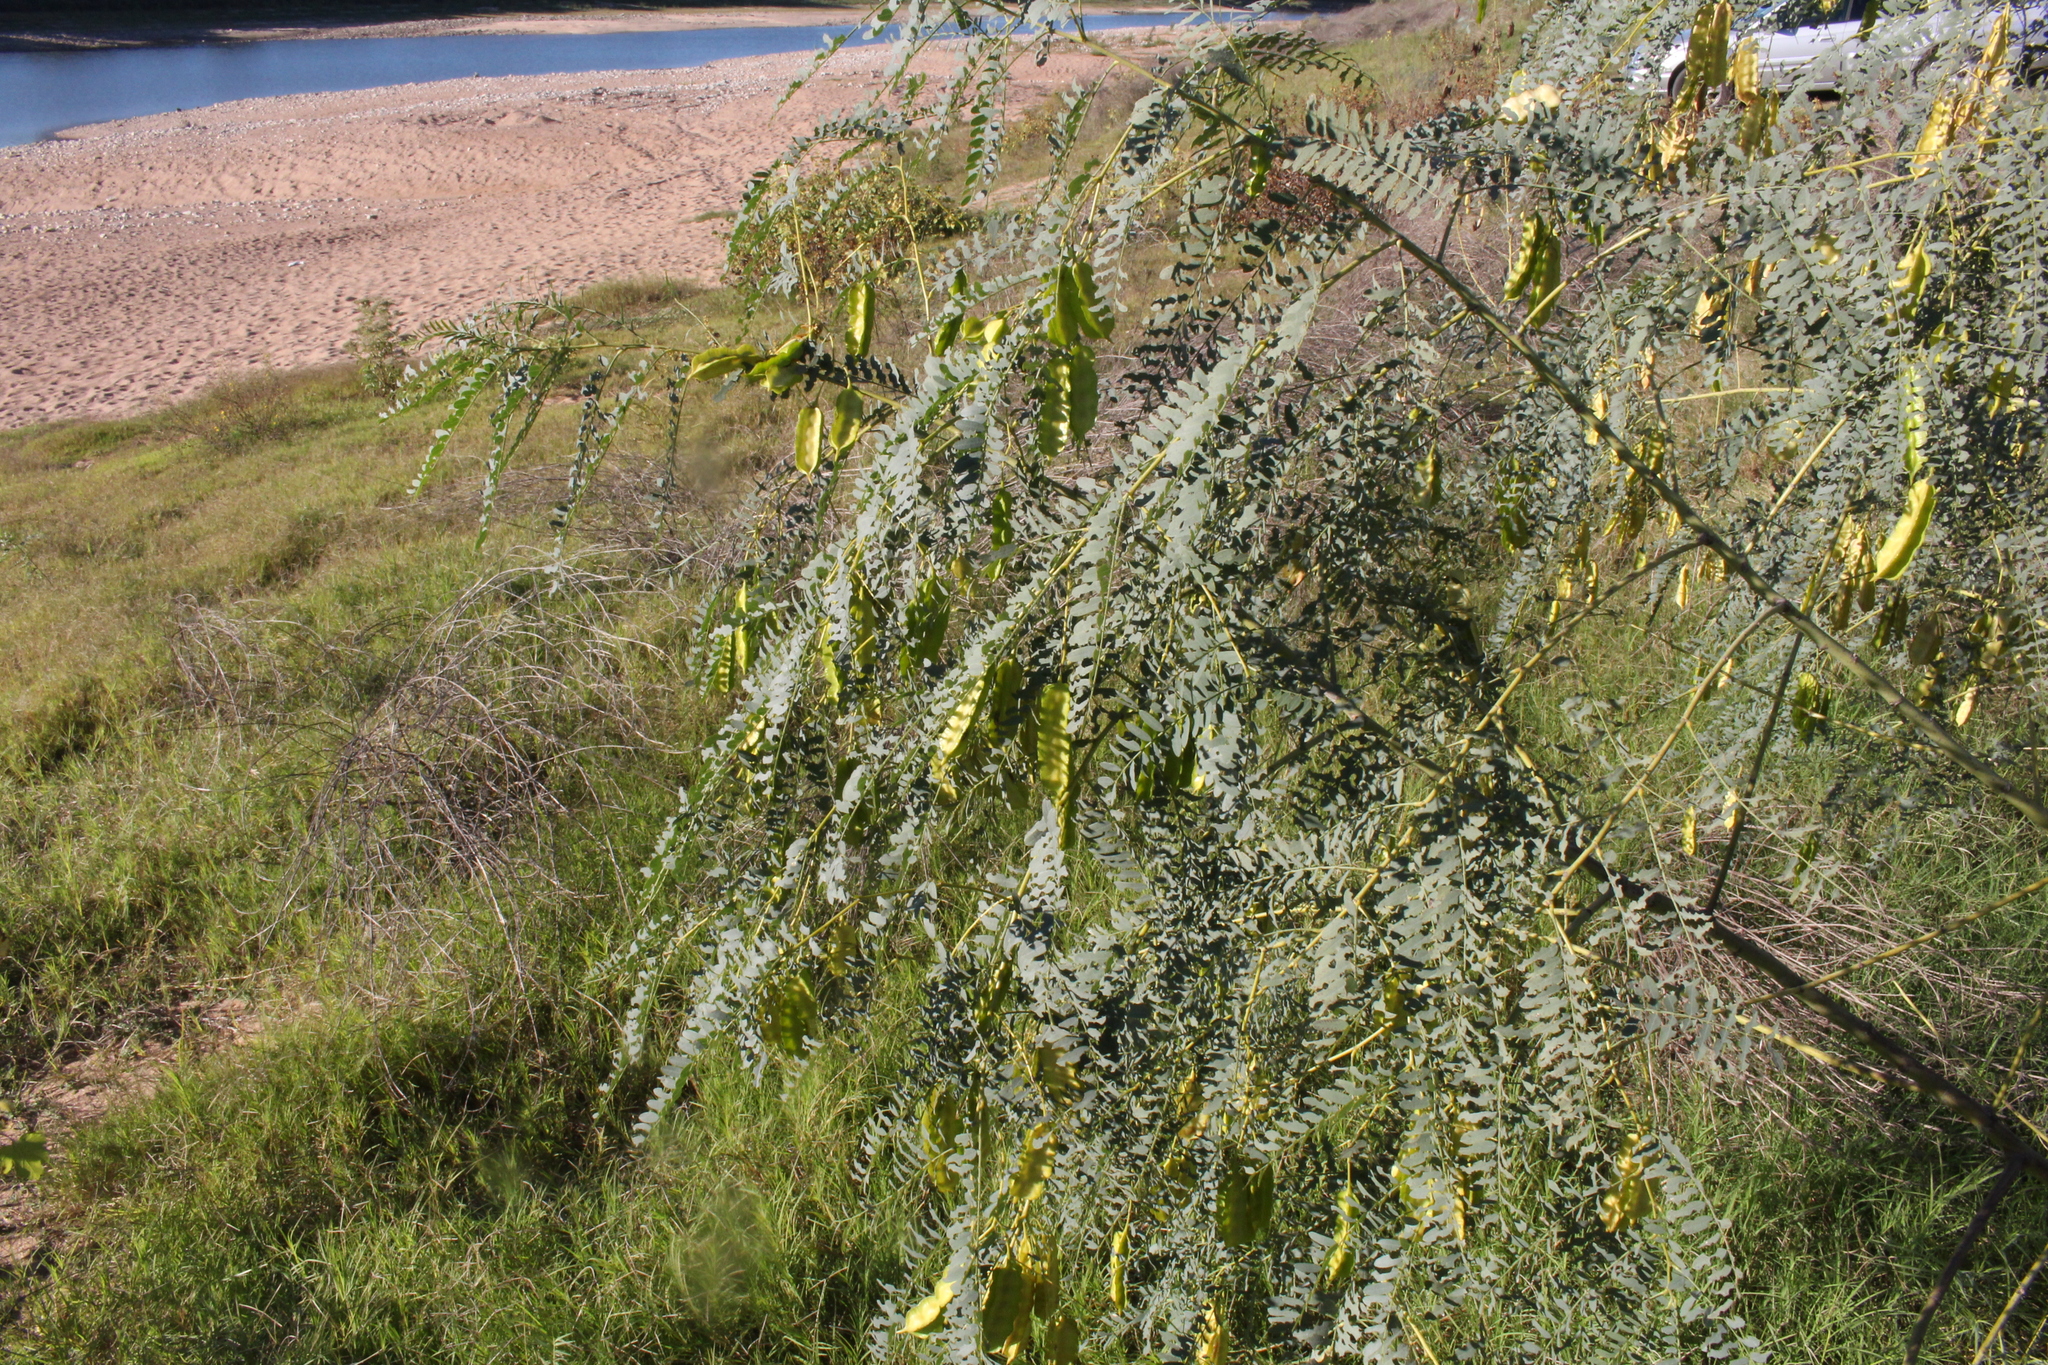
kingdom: Plantae
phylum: Tracheophyta
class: Magnoliopsida
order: Fabales
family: Fabaceae
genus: Sesbania
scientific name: Sesbania drummondii
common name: Poison-bean
